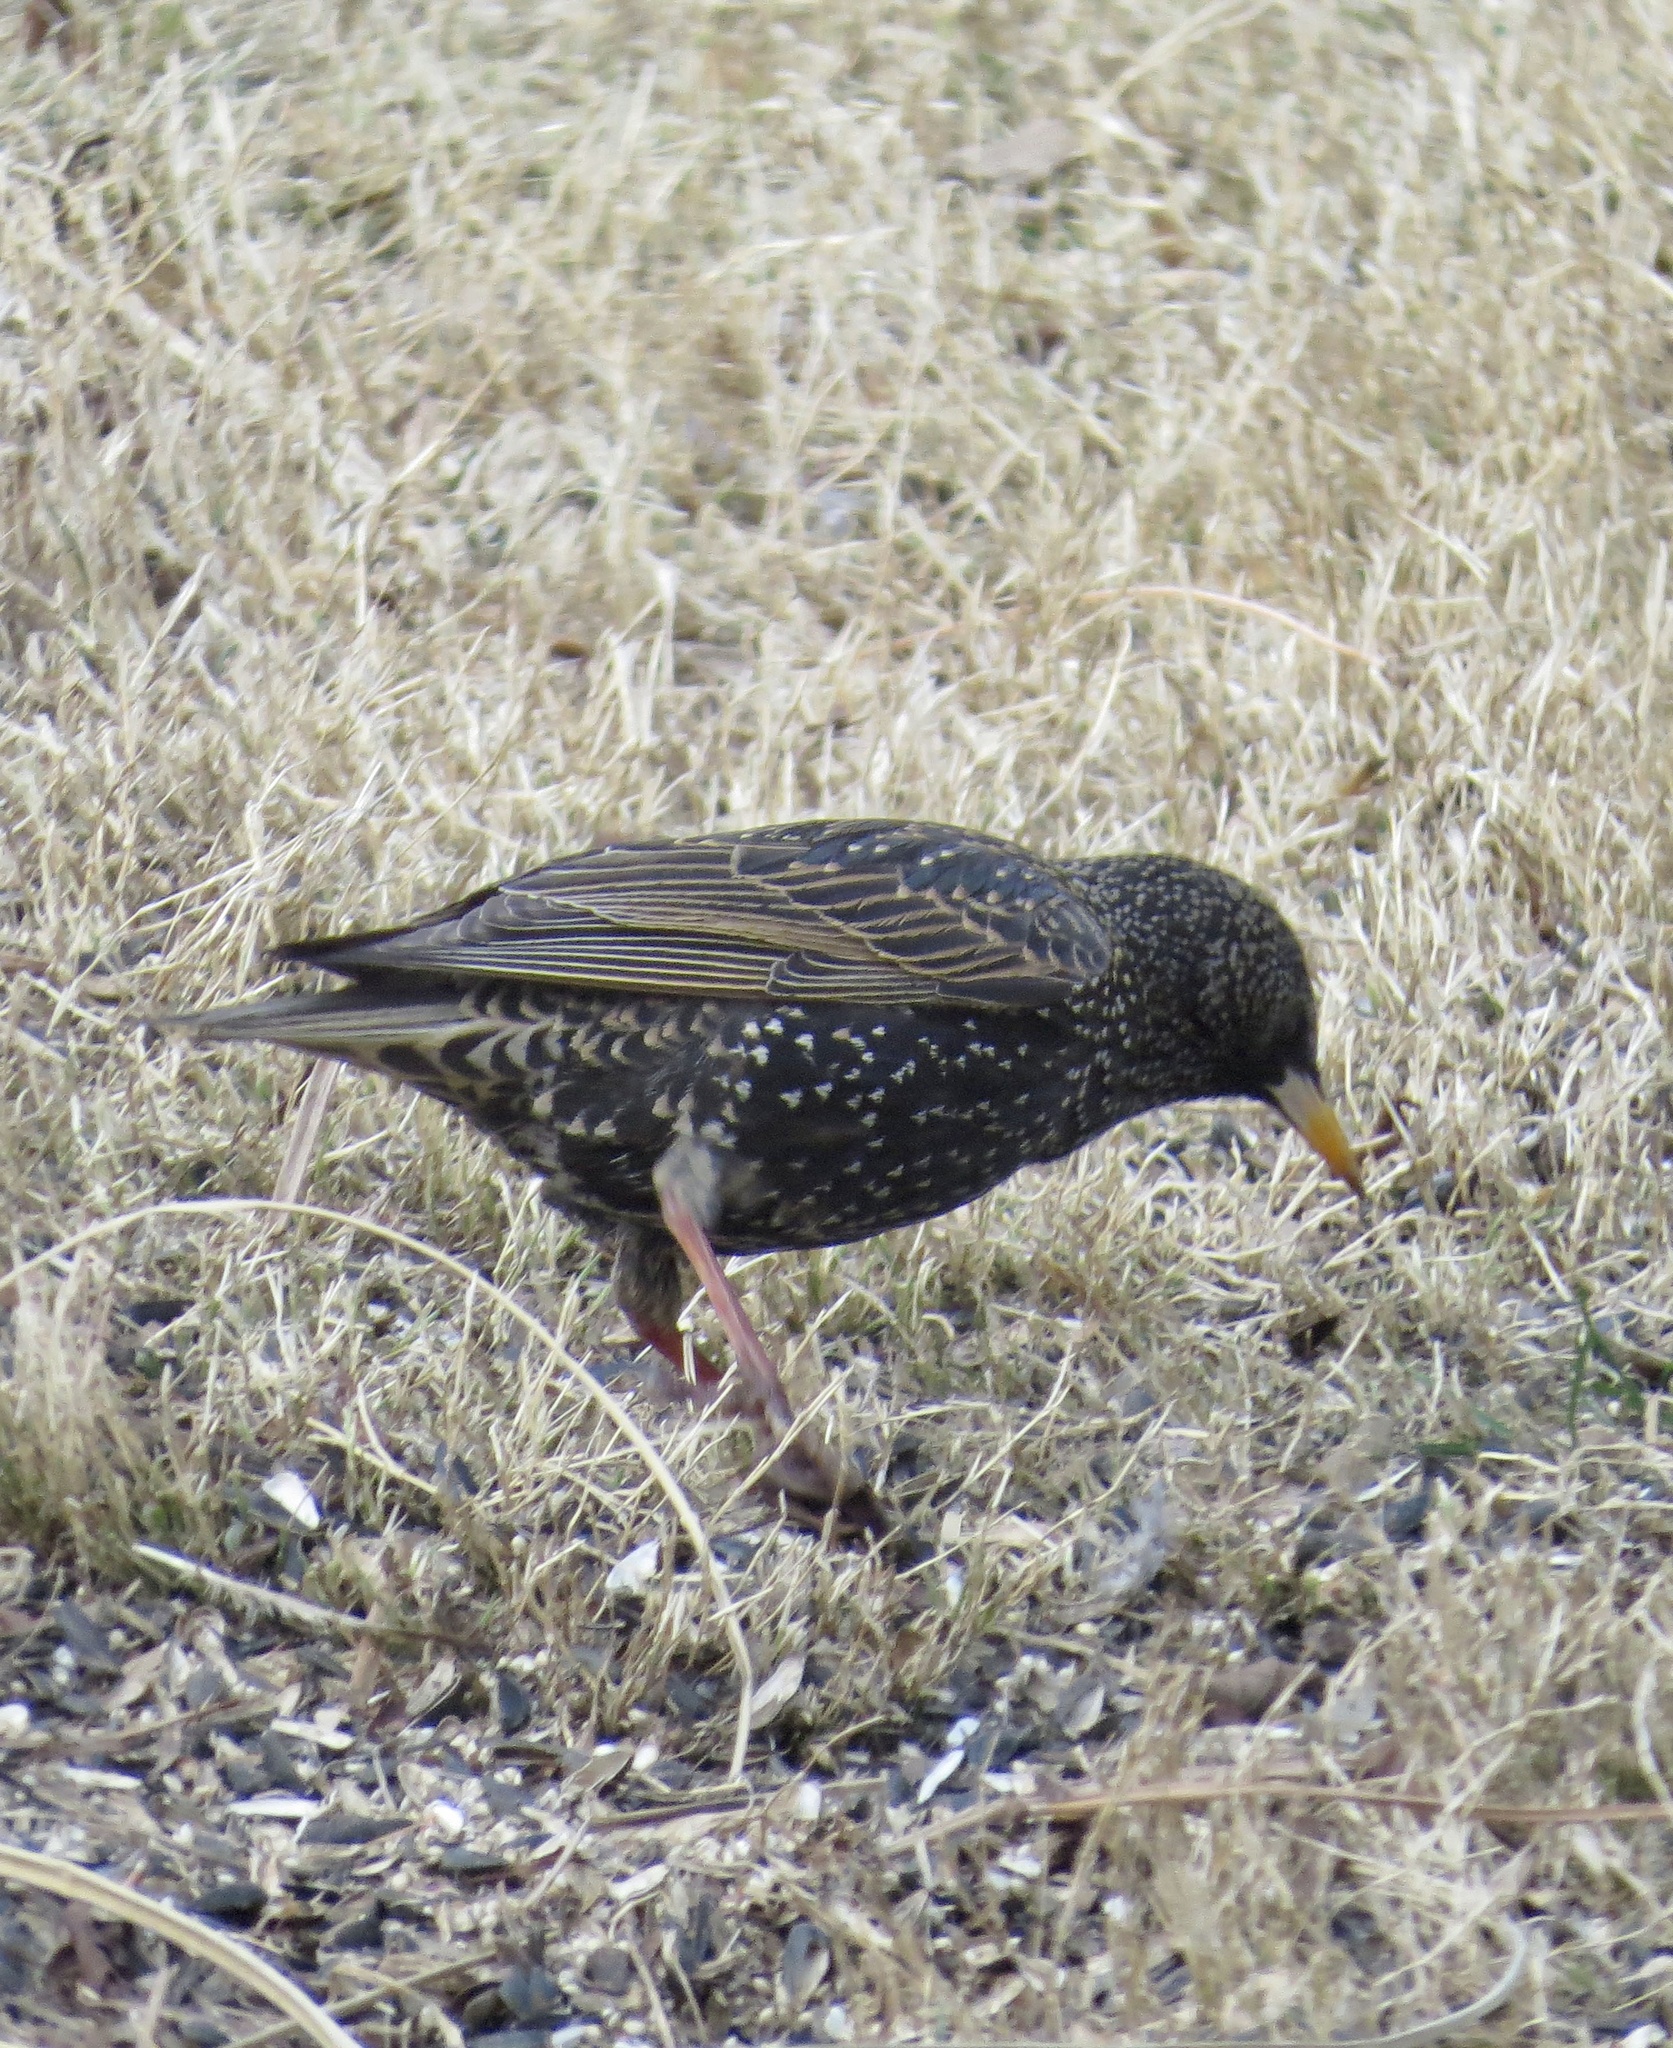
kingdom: Animalia
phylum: Chordata
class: Aves
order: Passeriformes
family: Sturnidae
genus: Sturnus
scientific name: Sturnus vulgaris
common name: Common starling
